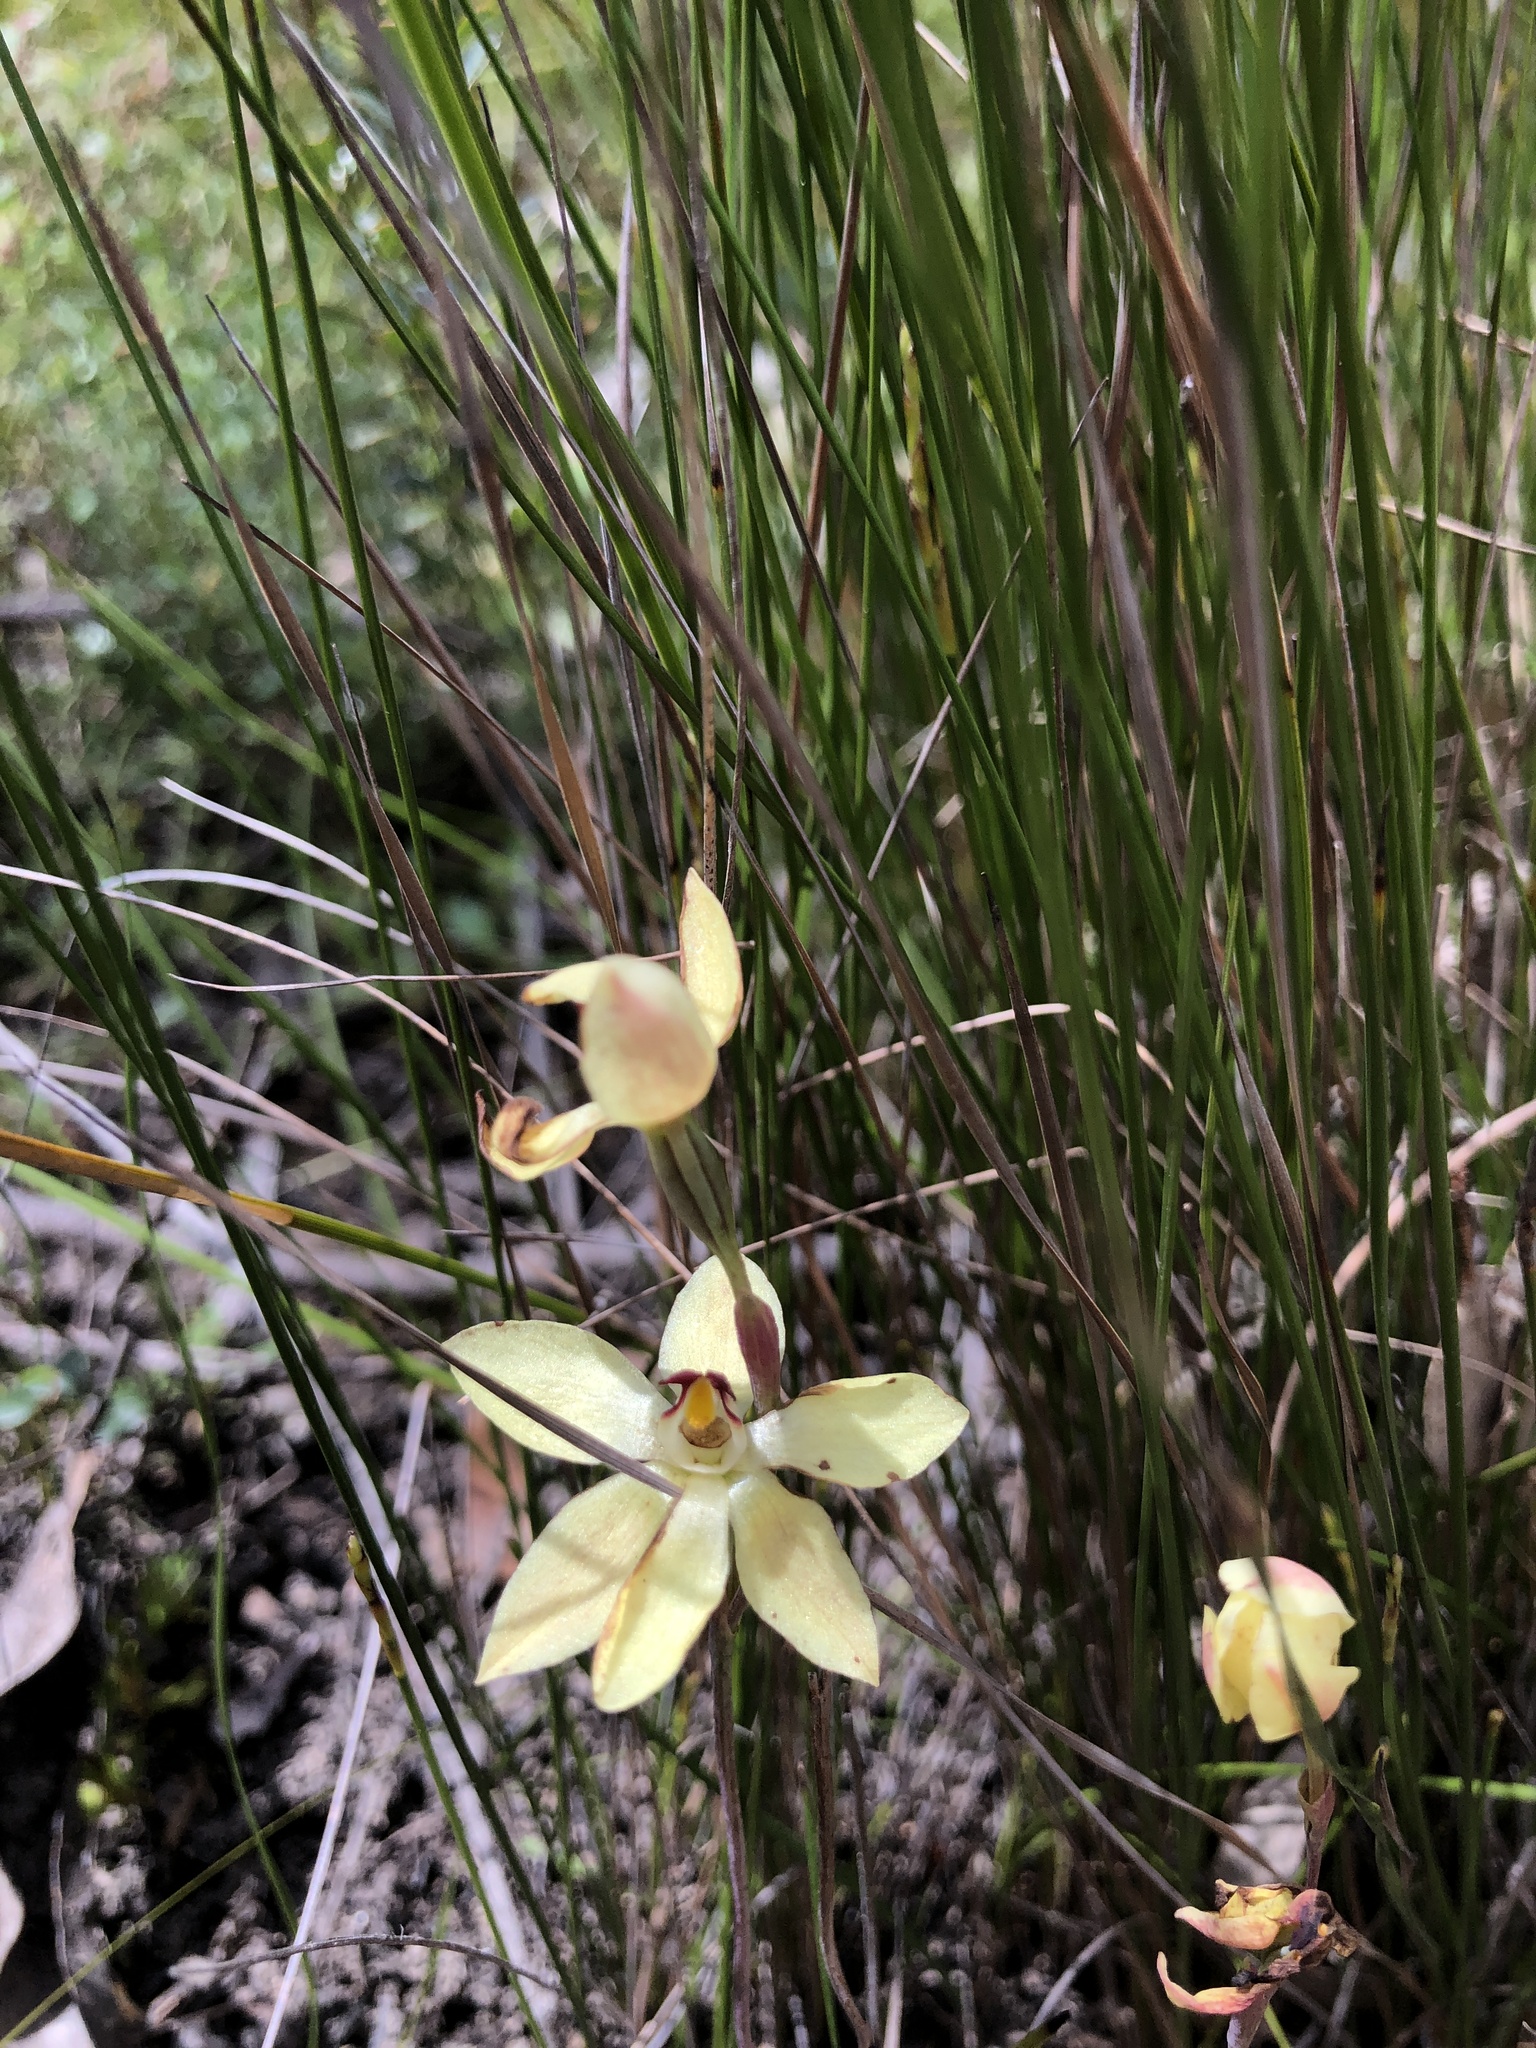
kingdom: Plantae
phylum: Tracheophyta
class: Liliopsida
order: Asparagales
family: Orchidaceae
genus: Thelymitra
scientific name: Thelymitra antennifera
